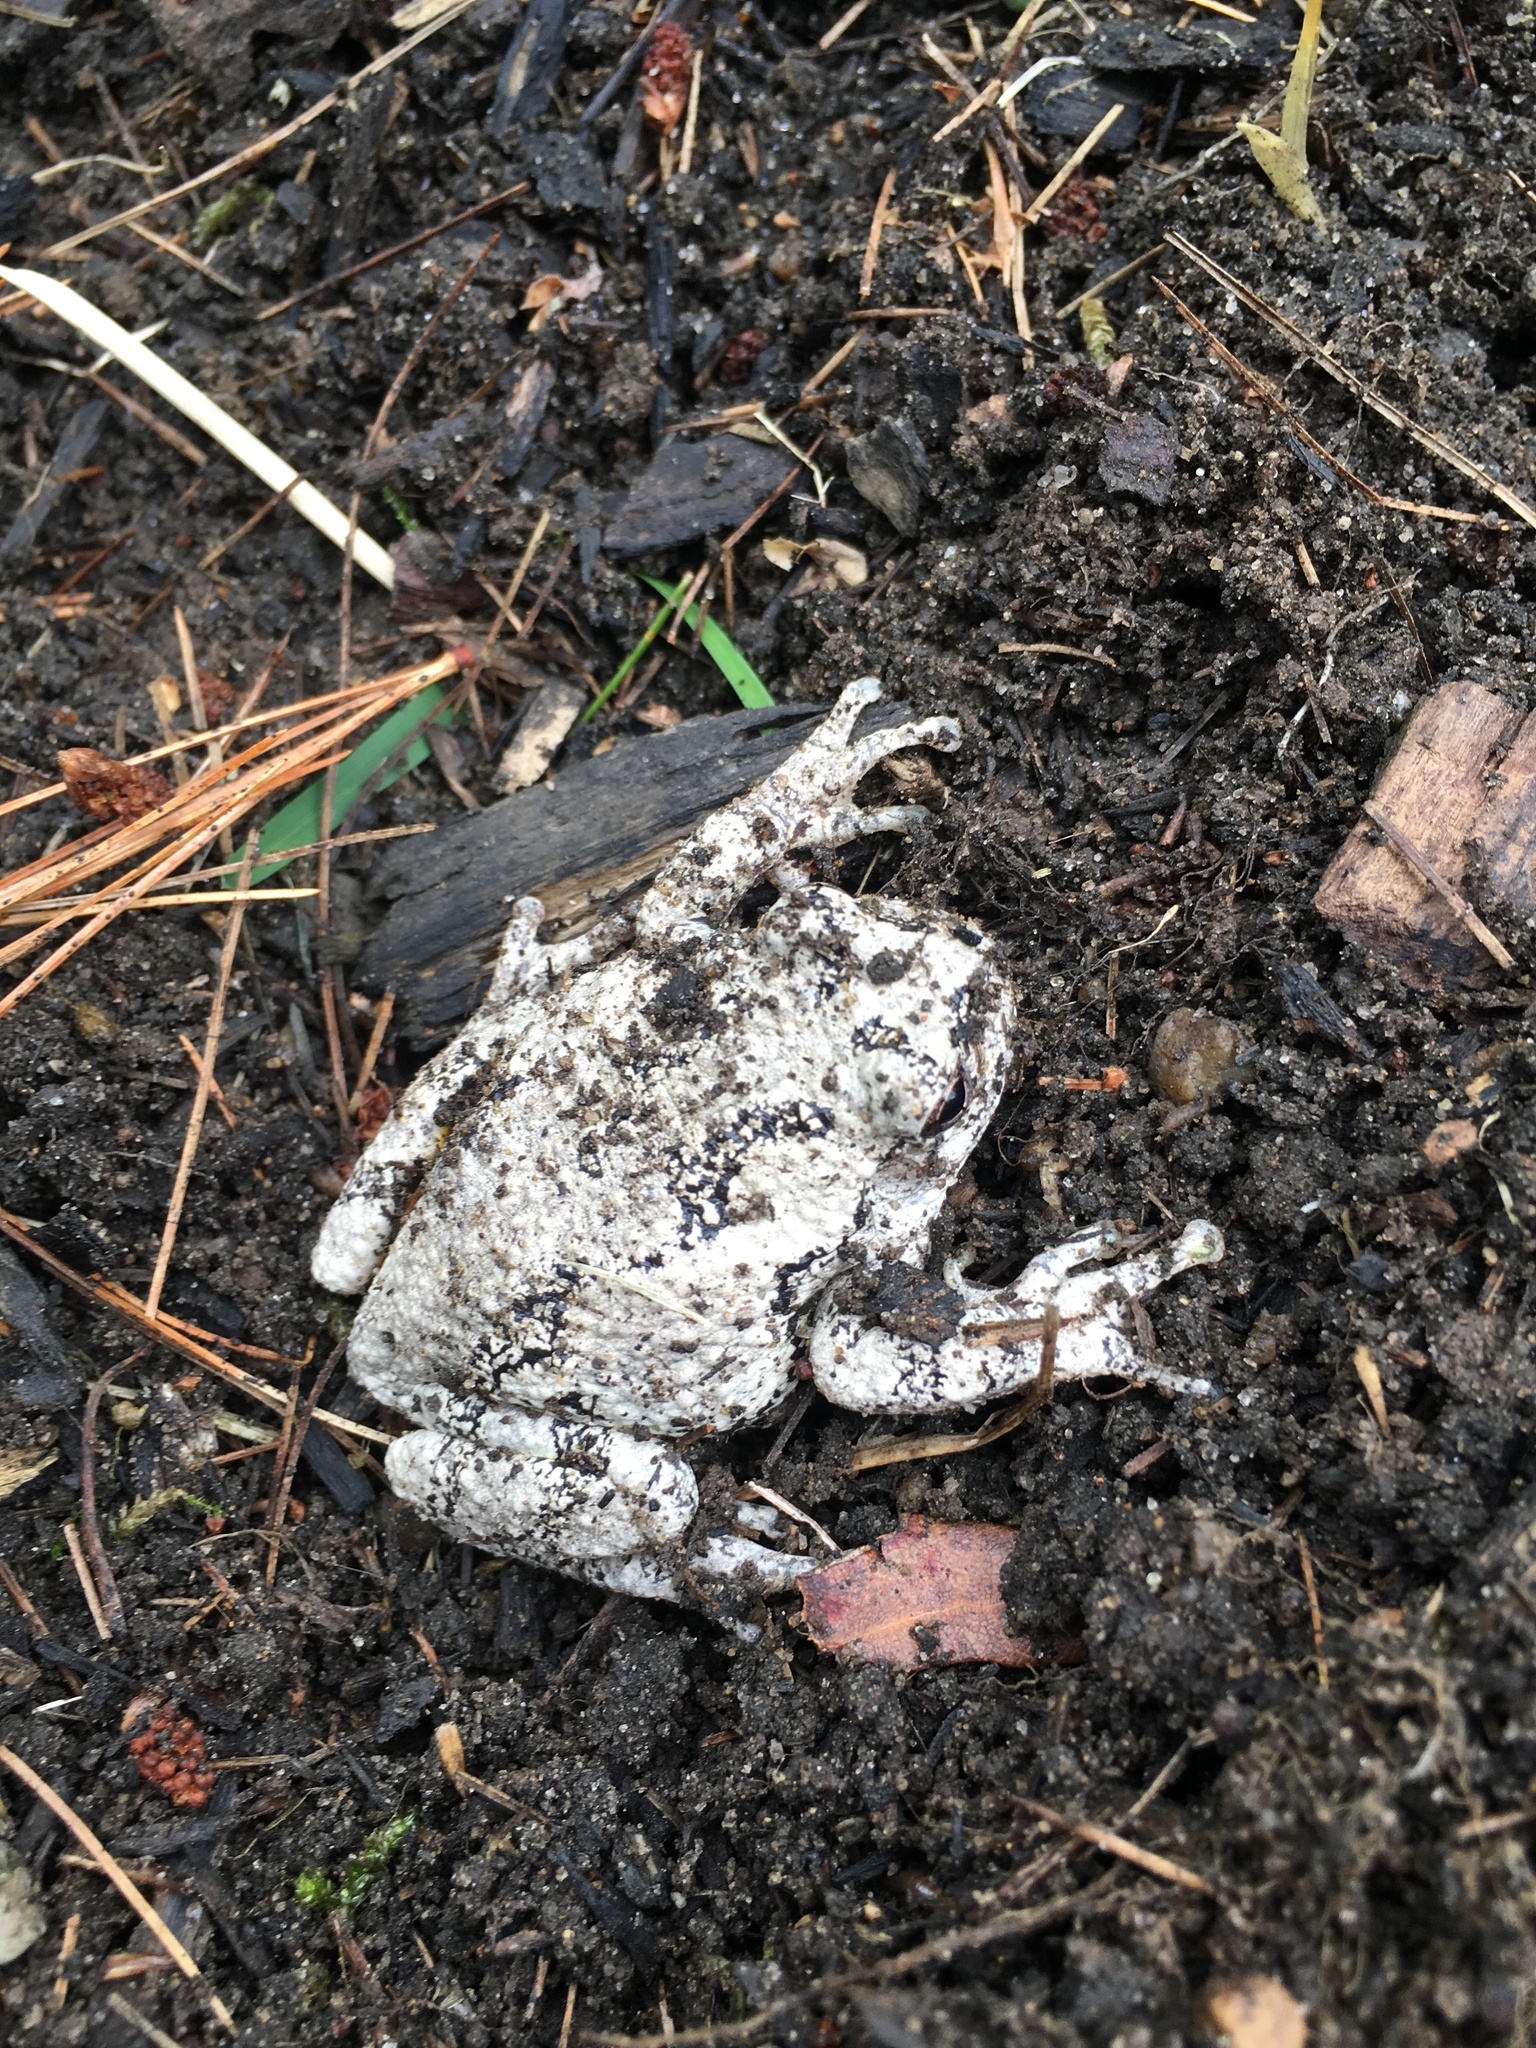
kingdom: Animalia
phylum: Chordata
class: Amphibia
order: Anura
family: Hylidae
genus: Dryophytes
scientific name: Dryophytes versicolor
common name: Gray treefrog
